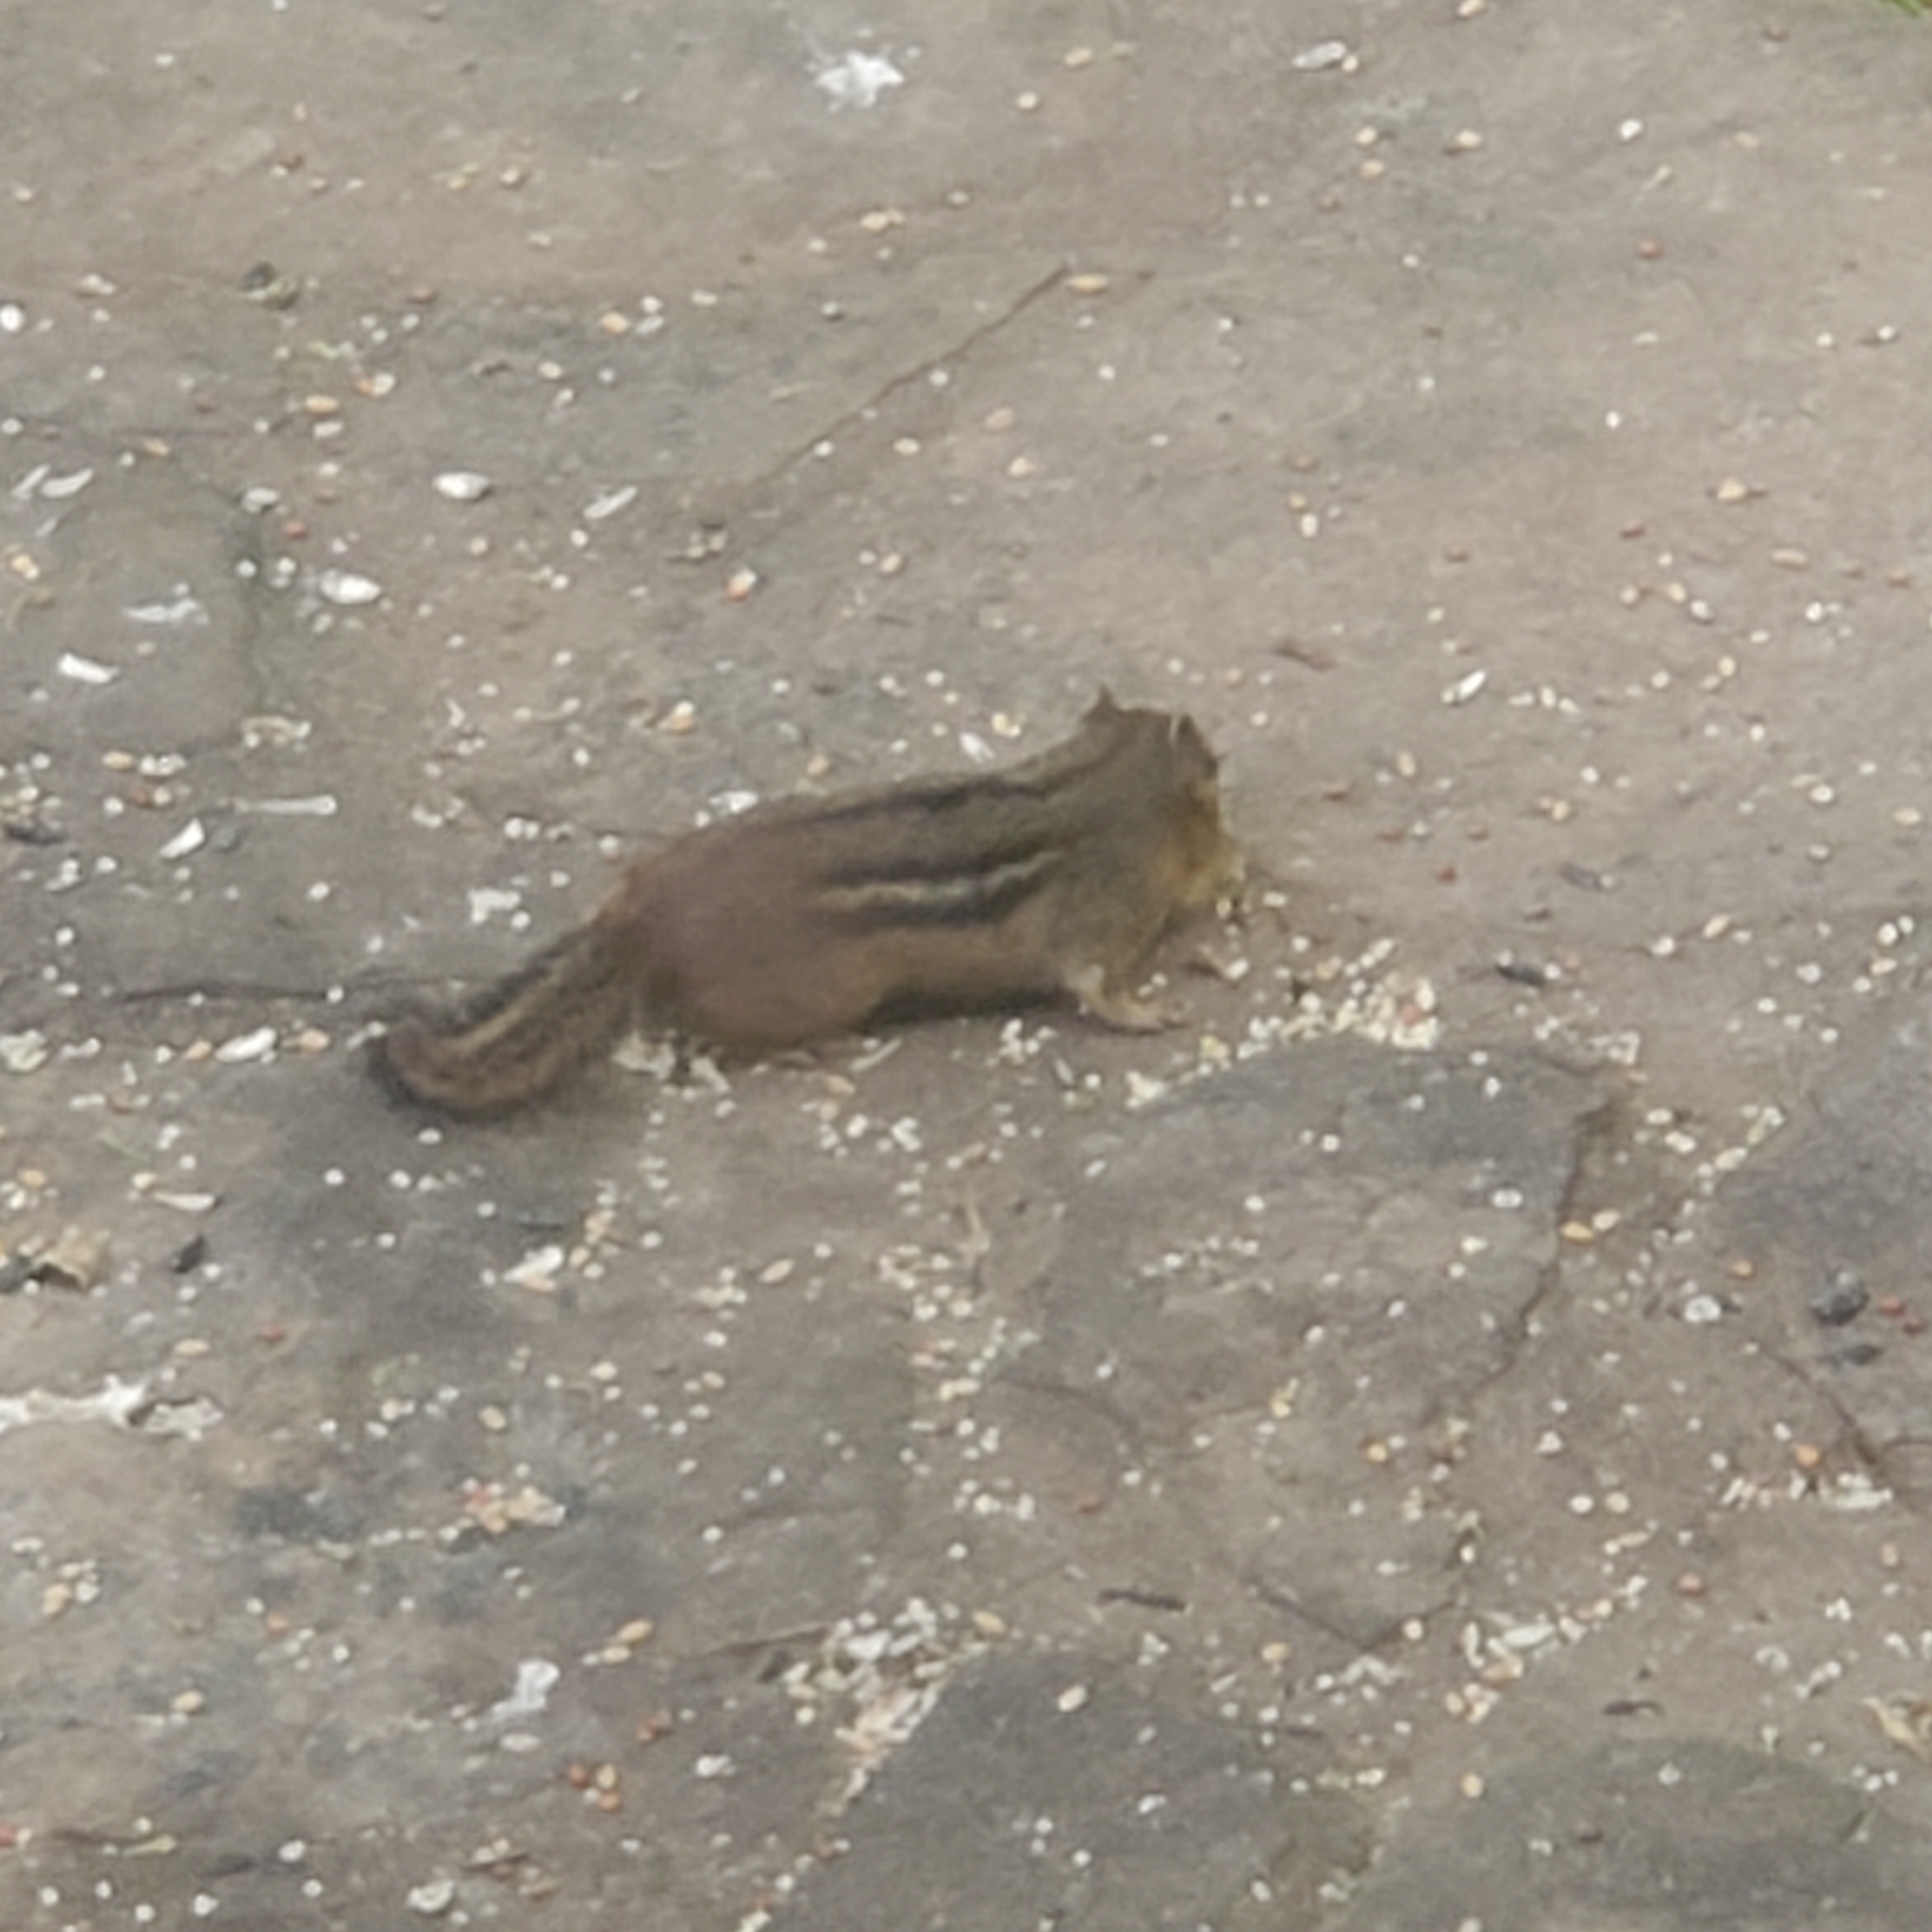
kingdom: Animalia
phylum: Chordata
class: Mammalia
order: Rodentia
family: Sciuridae
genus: Tamias
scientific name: Tamias striatus
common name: Eastern chipmunk
